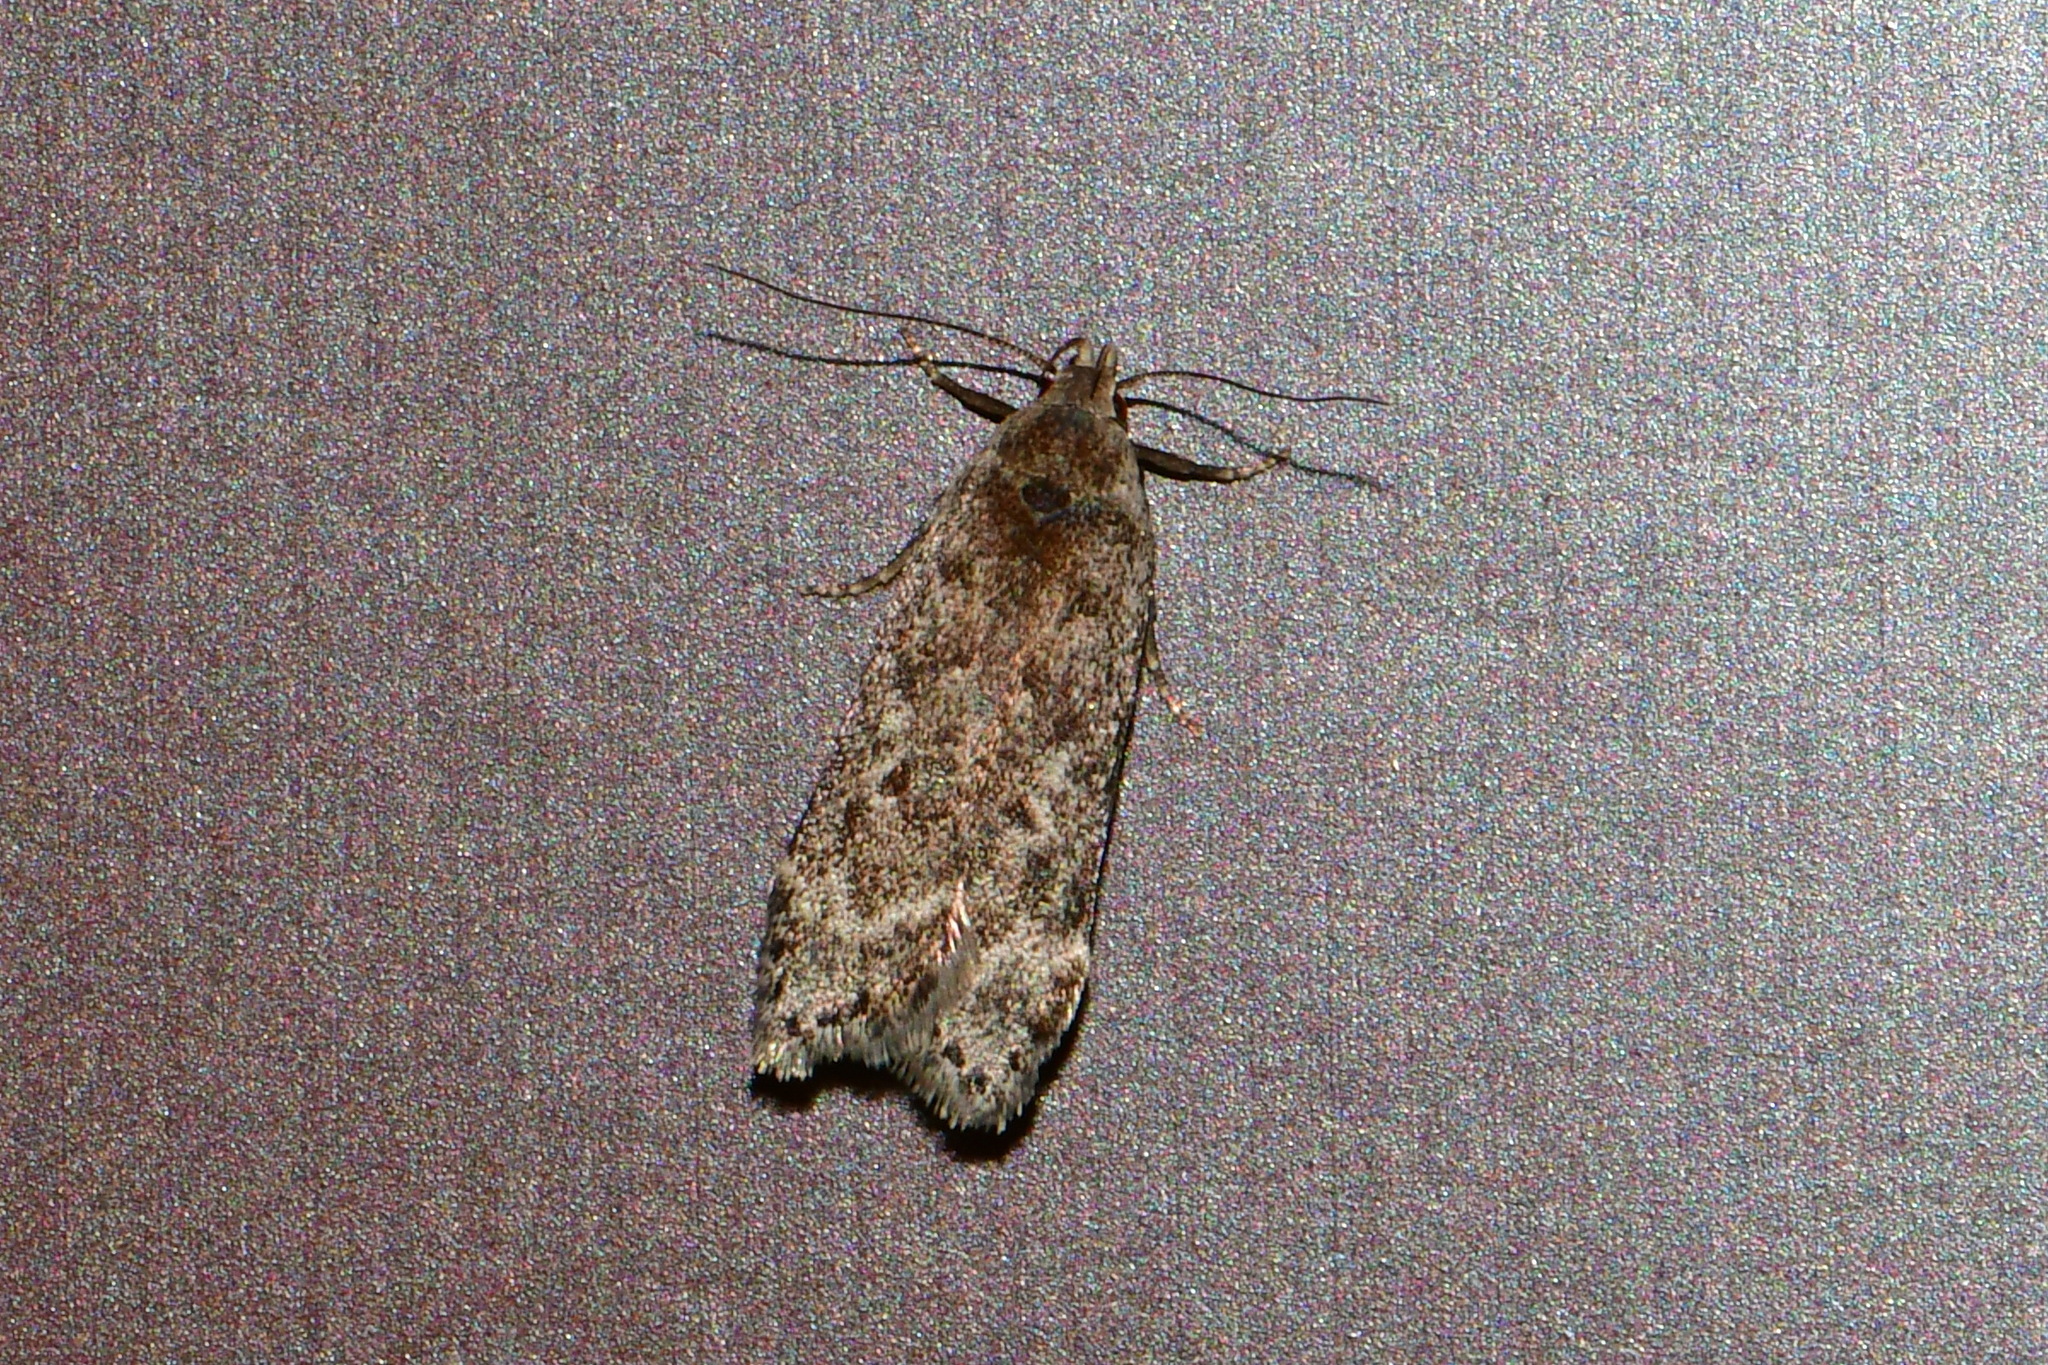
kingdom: Animalia
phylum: Arthropoda
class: Insecta
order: Lepidoptera
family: Gelechiidae
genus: Anacampsis
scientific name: Anacampsis populella
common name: Poplar leafroller
